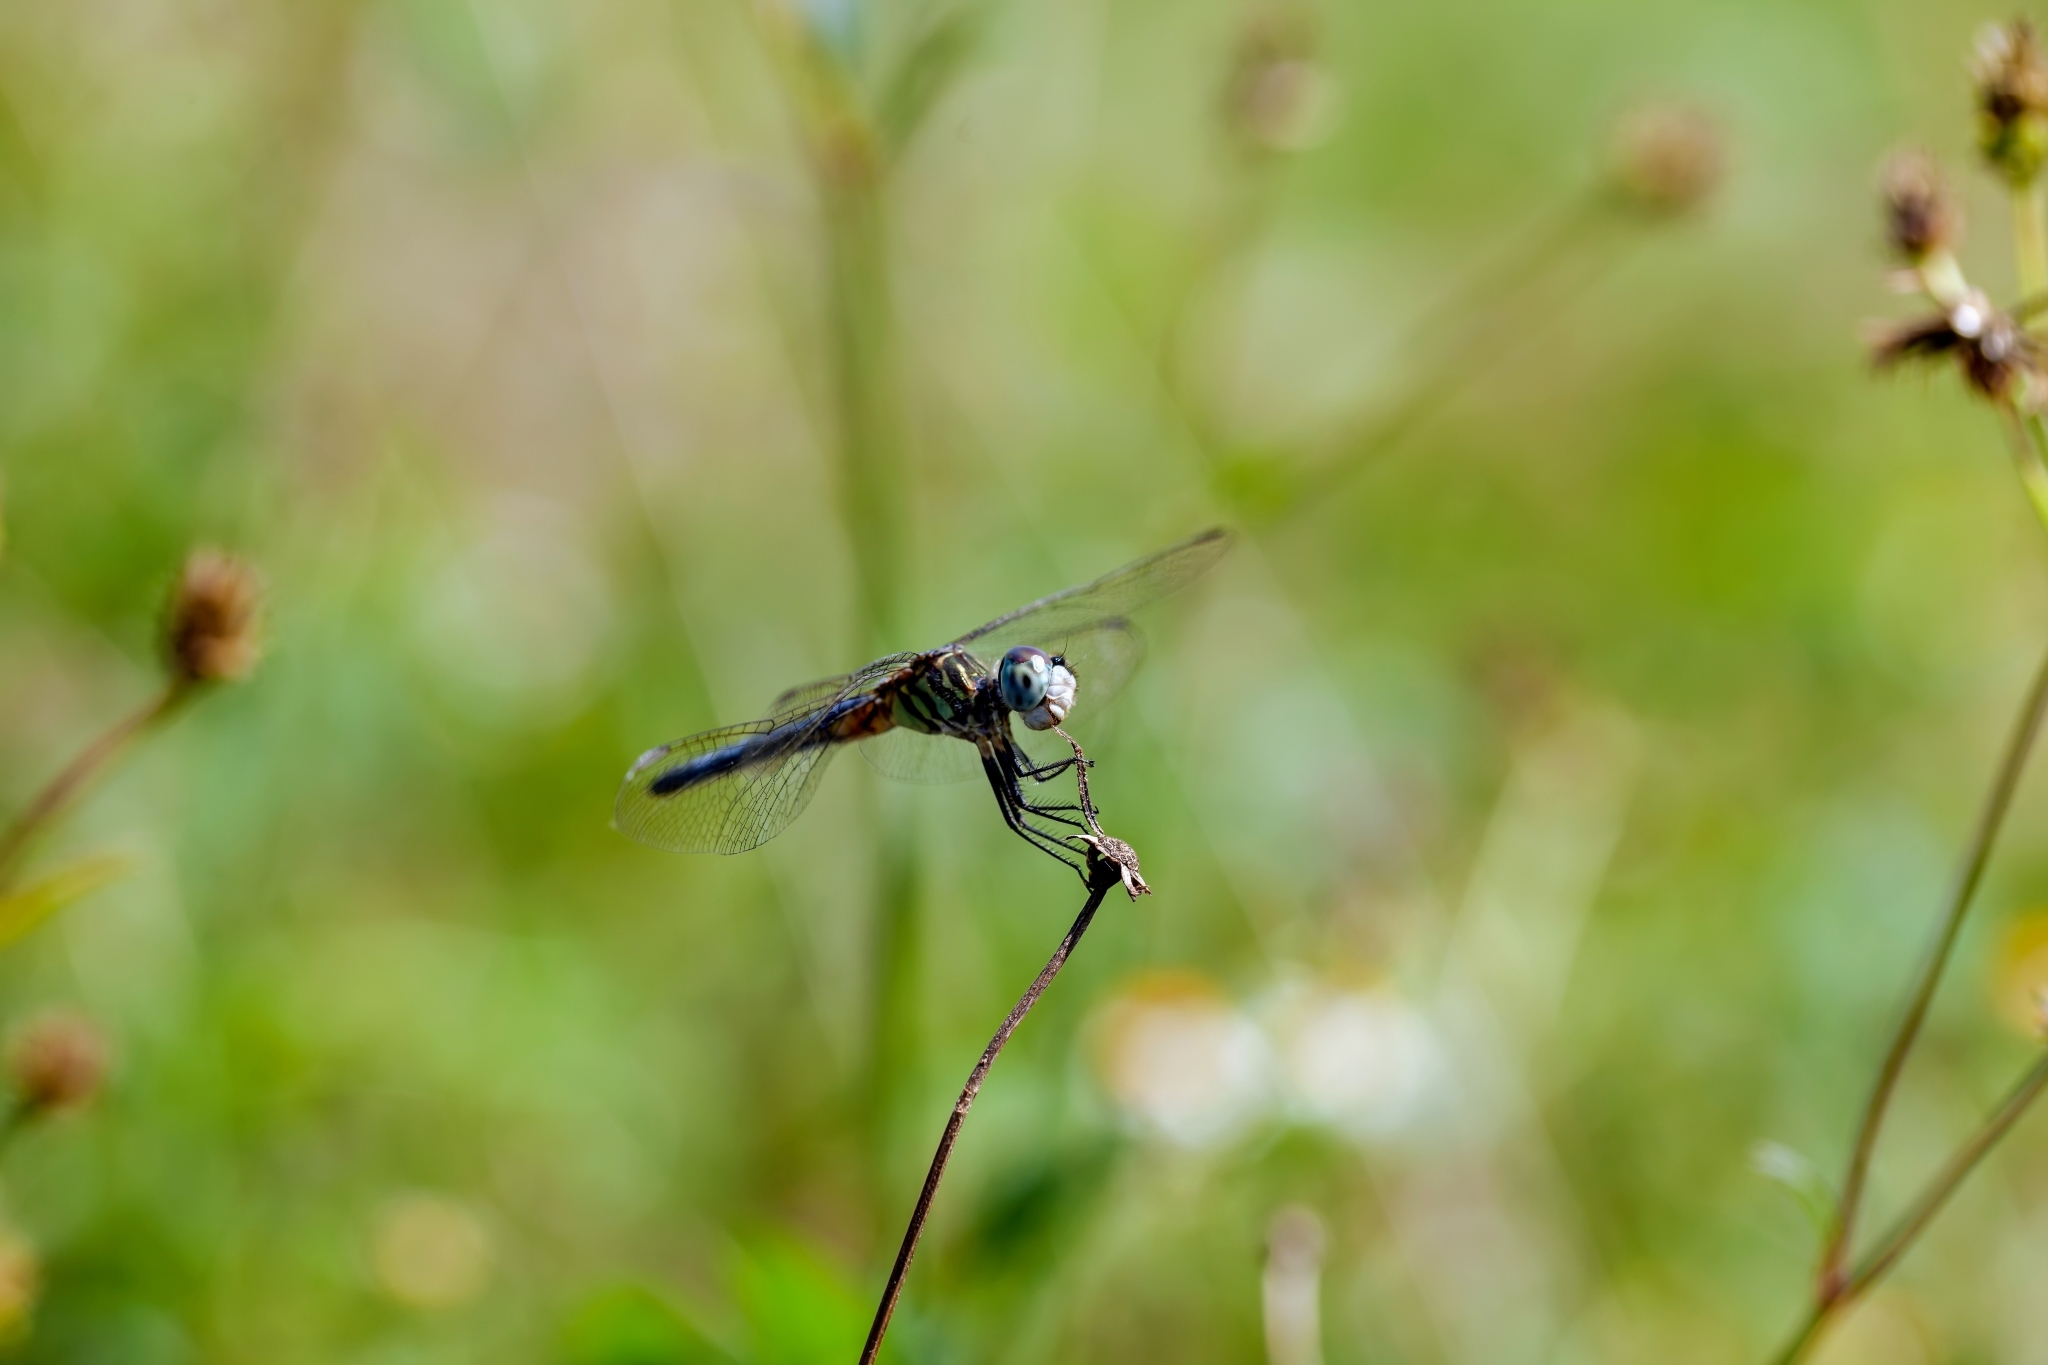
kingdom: Animalia
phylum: Arthropoda
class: Insecta
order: Odonata
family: Libellulidae
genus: Pachydiplax
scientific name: Pachydiplax longipennis
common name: Blue dasher
